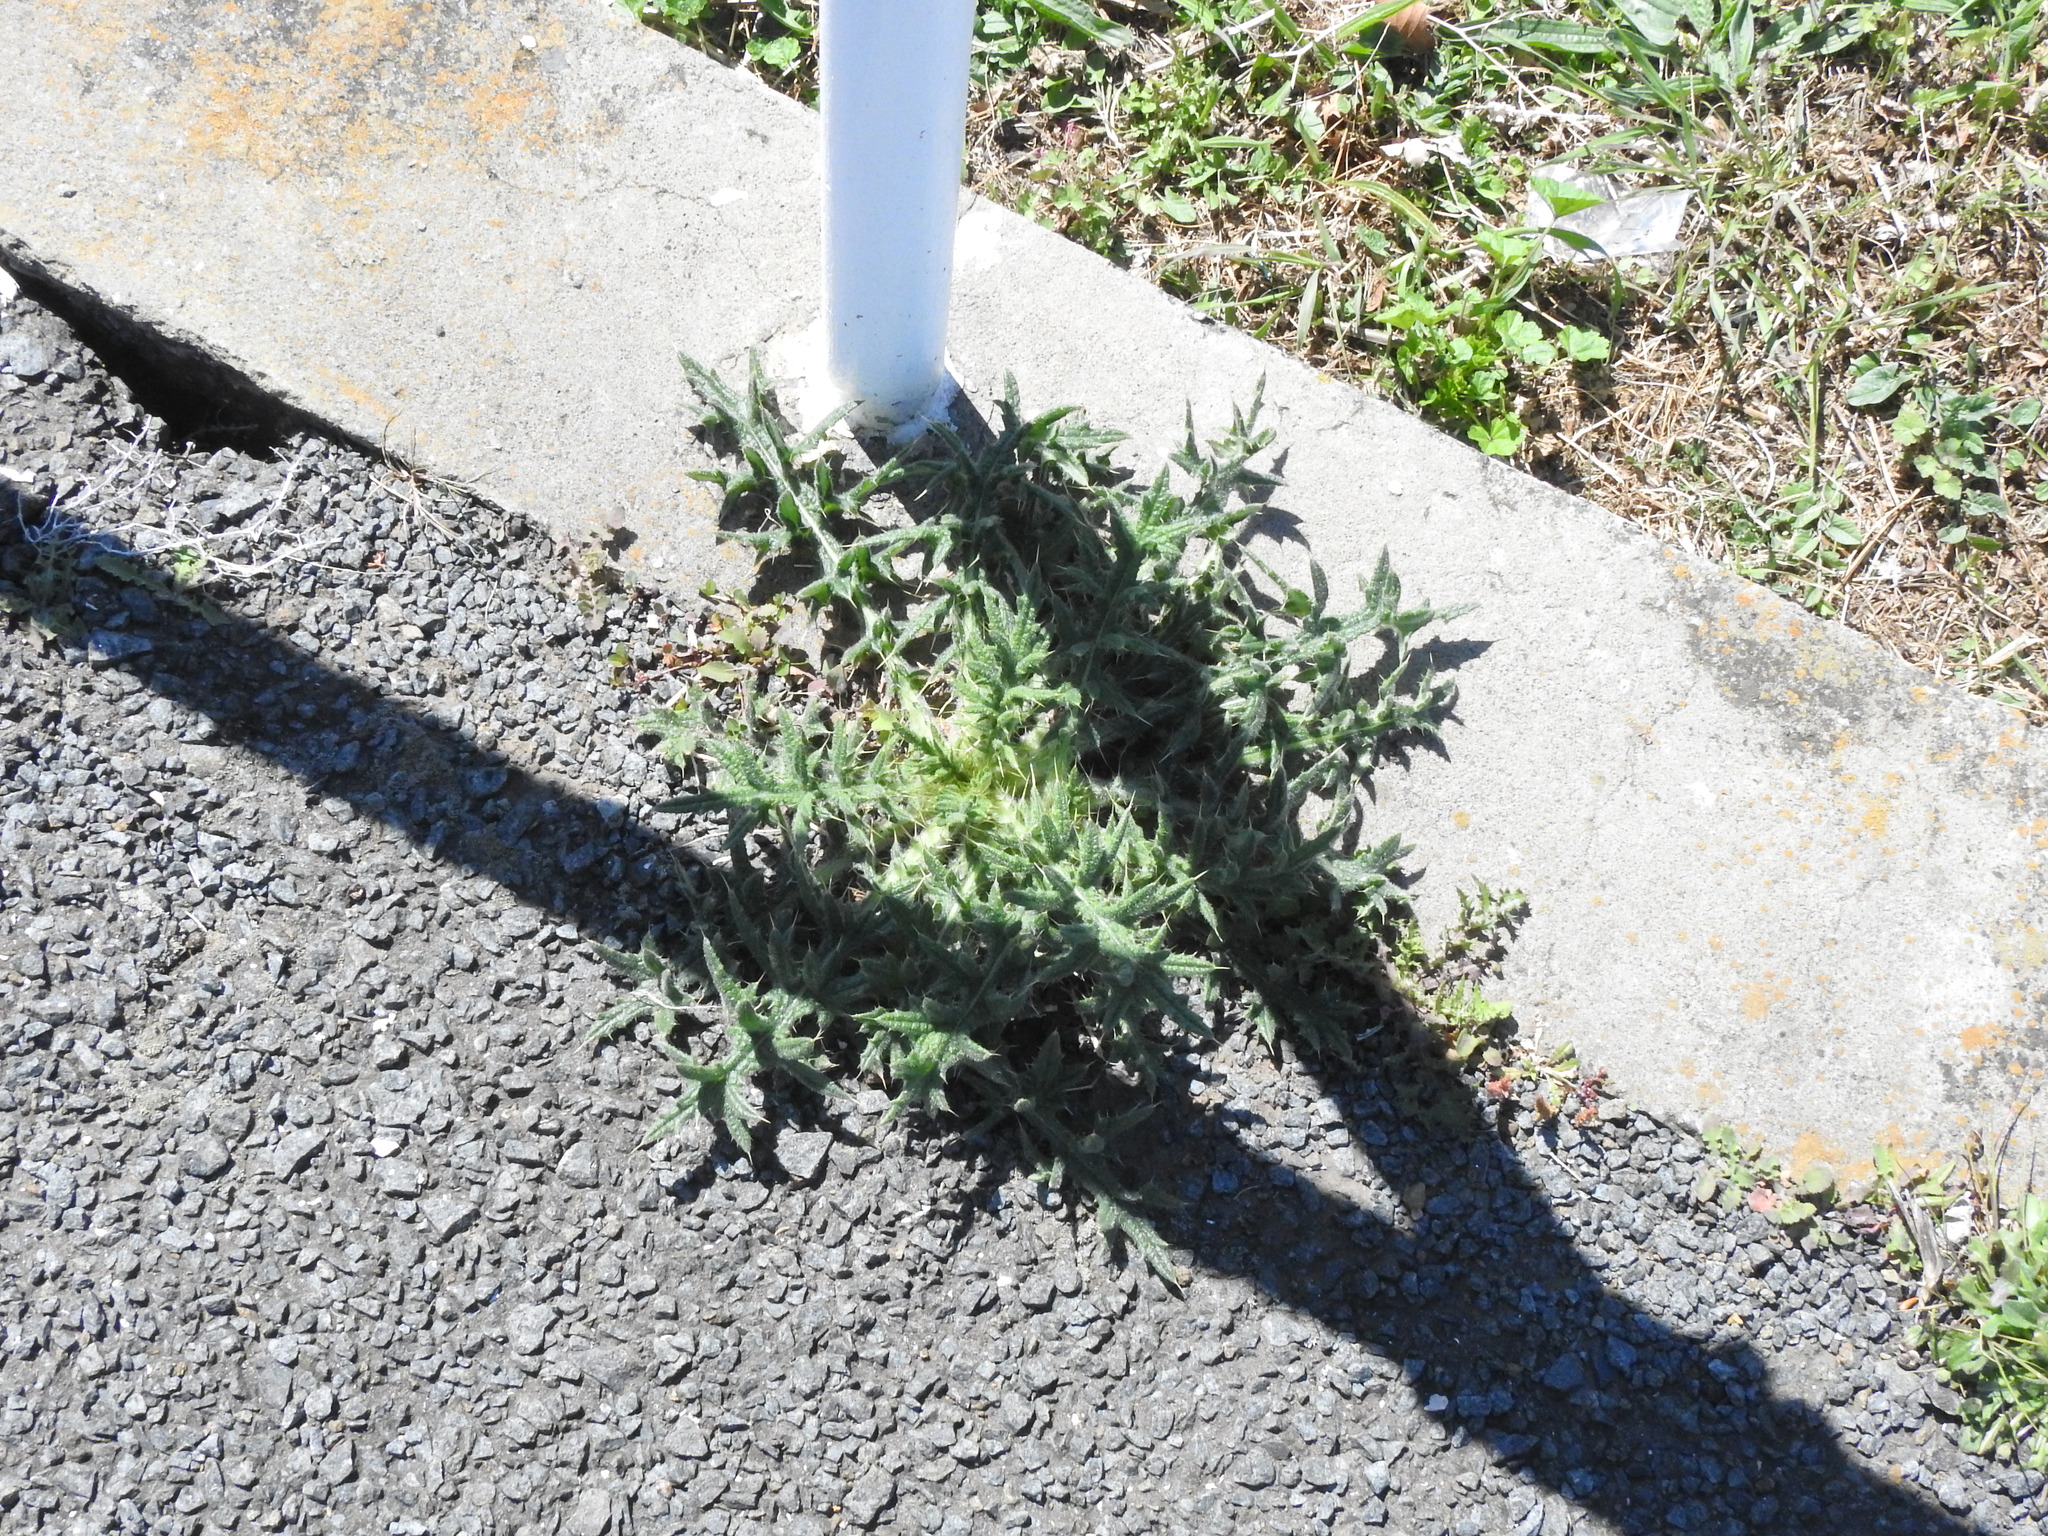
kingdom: Plantae
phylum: Tracheophyta
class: Magnoliopsida
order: Asterales
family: Asteraceae
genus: Cirsium
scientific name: Cirsium vulgare
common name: Bull thistle
